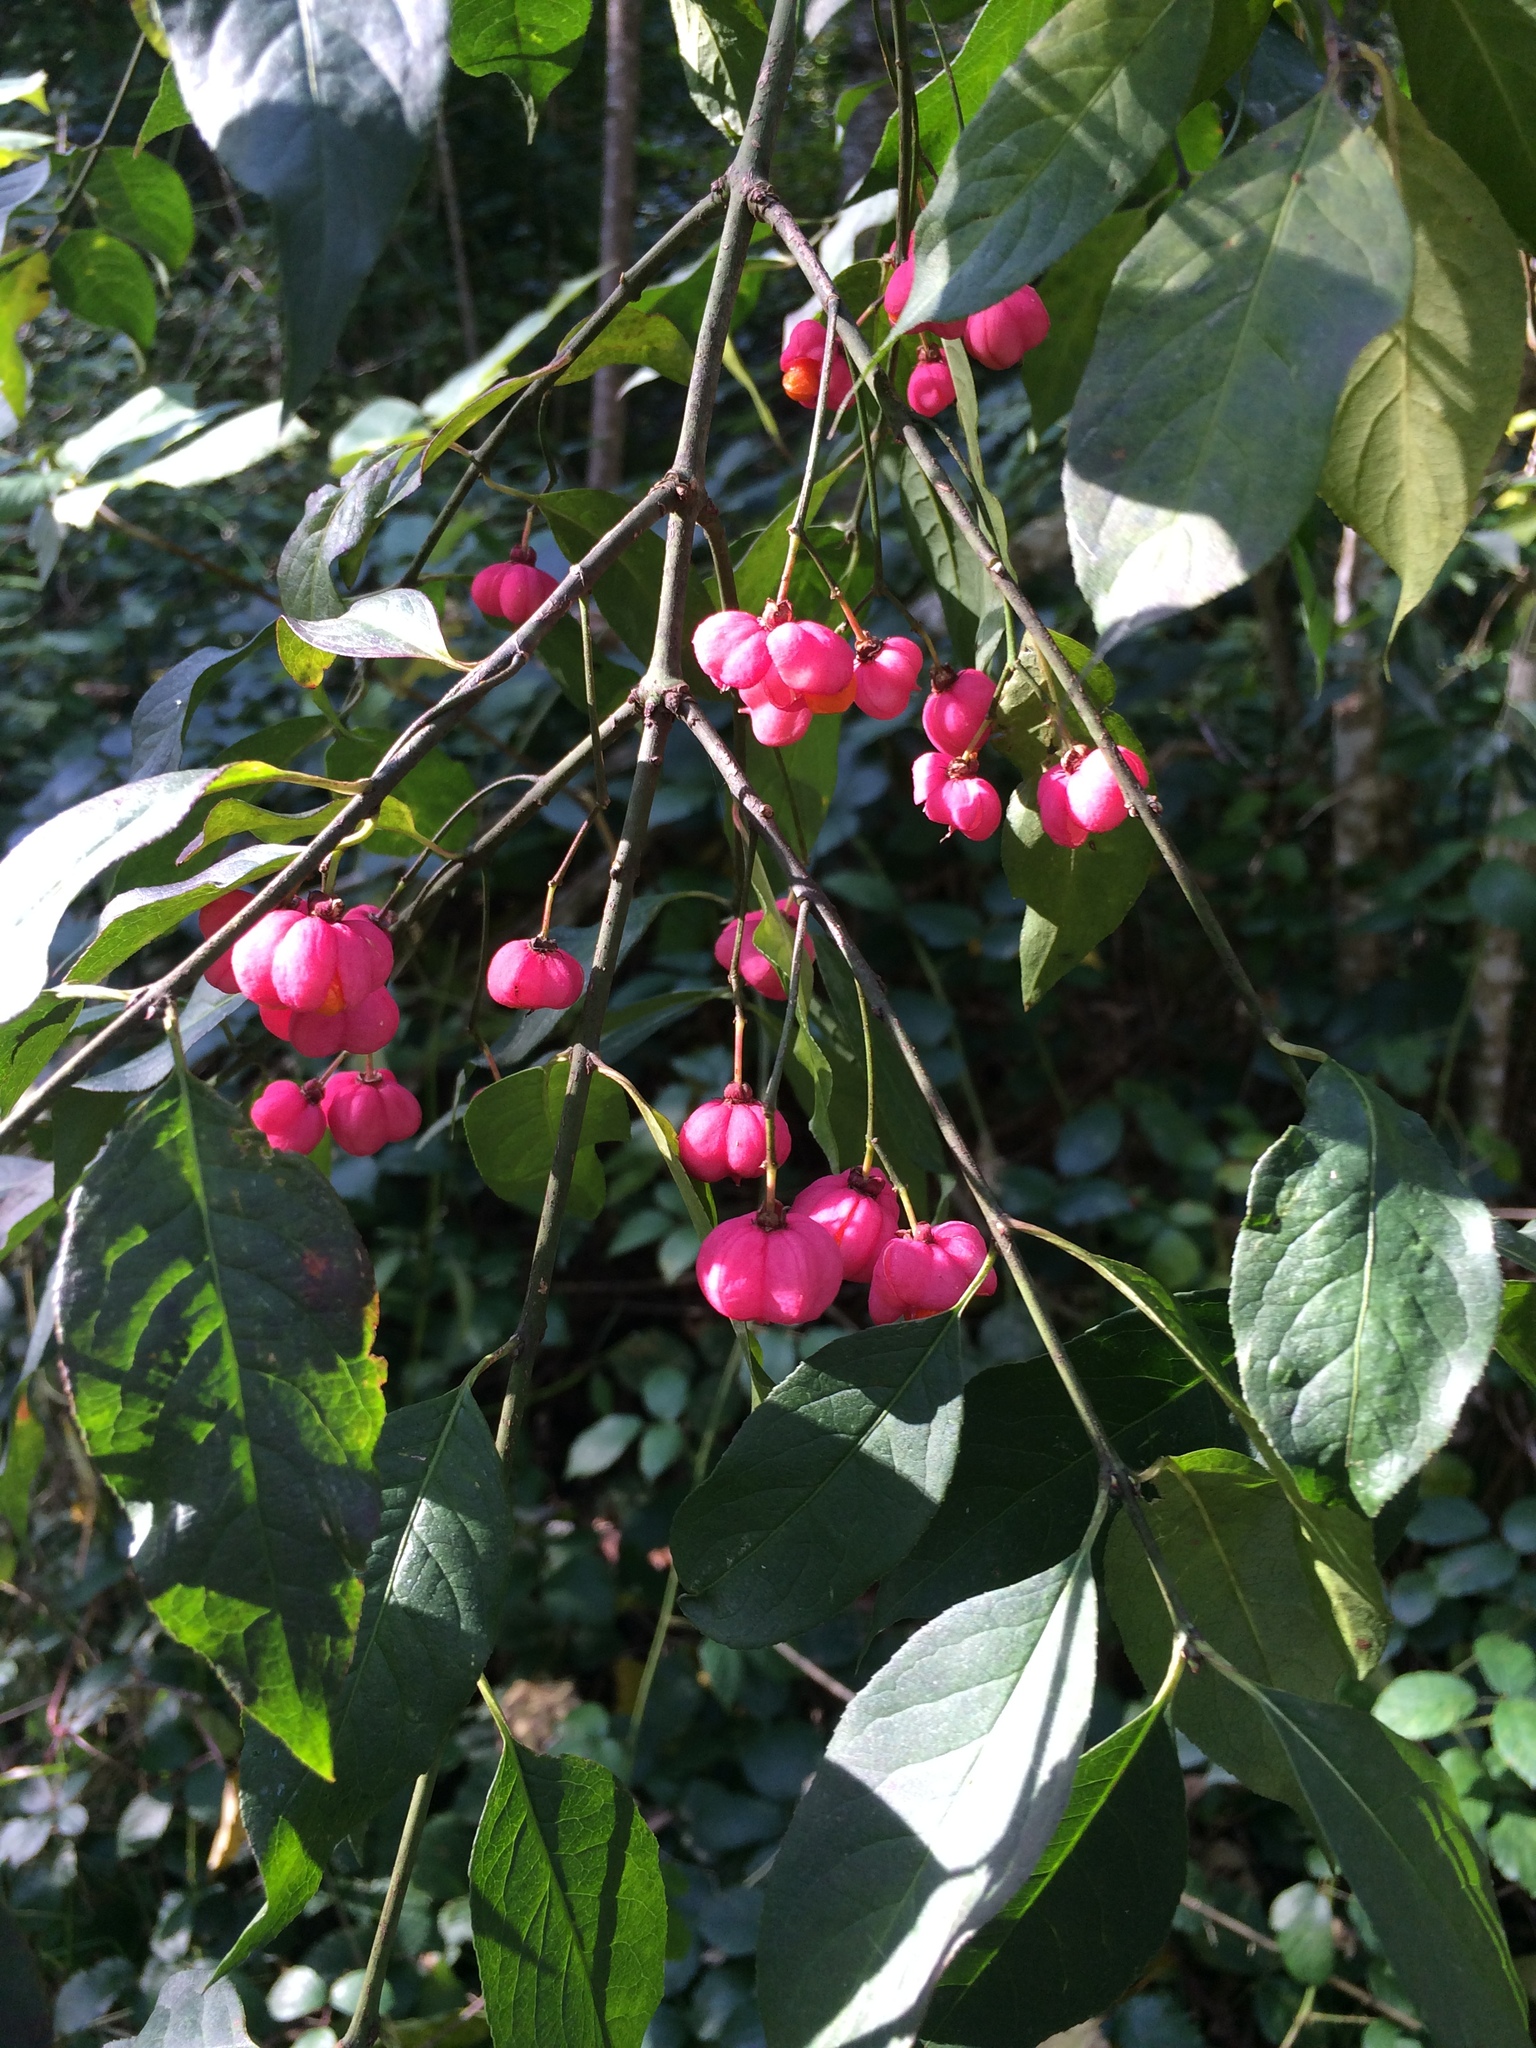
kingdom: Plantae
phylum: Tracheophyta
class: Magnoliopsida
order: Celastrales
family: Celastraceae
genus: Euonymus
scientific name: Euonymus europaeus
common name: Spindle
